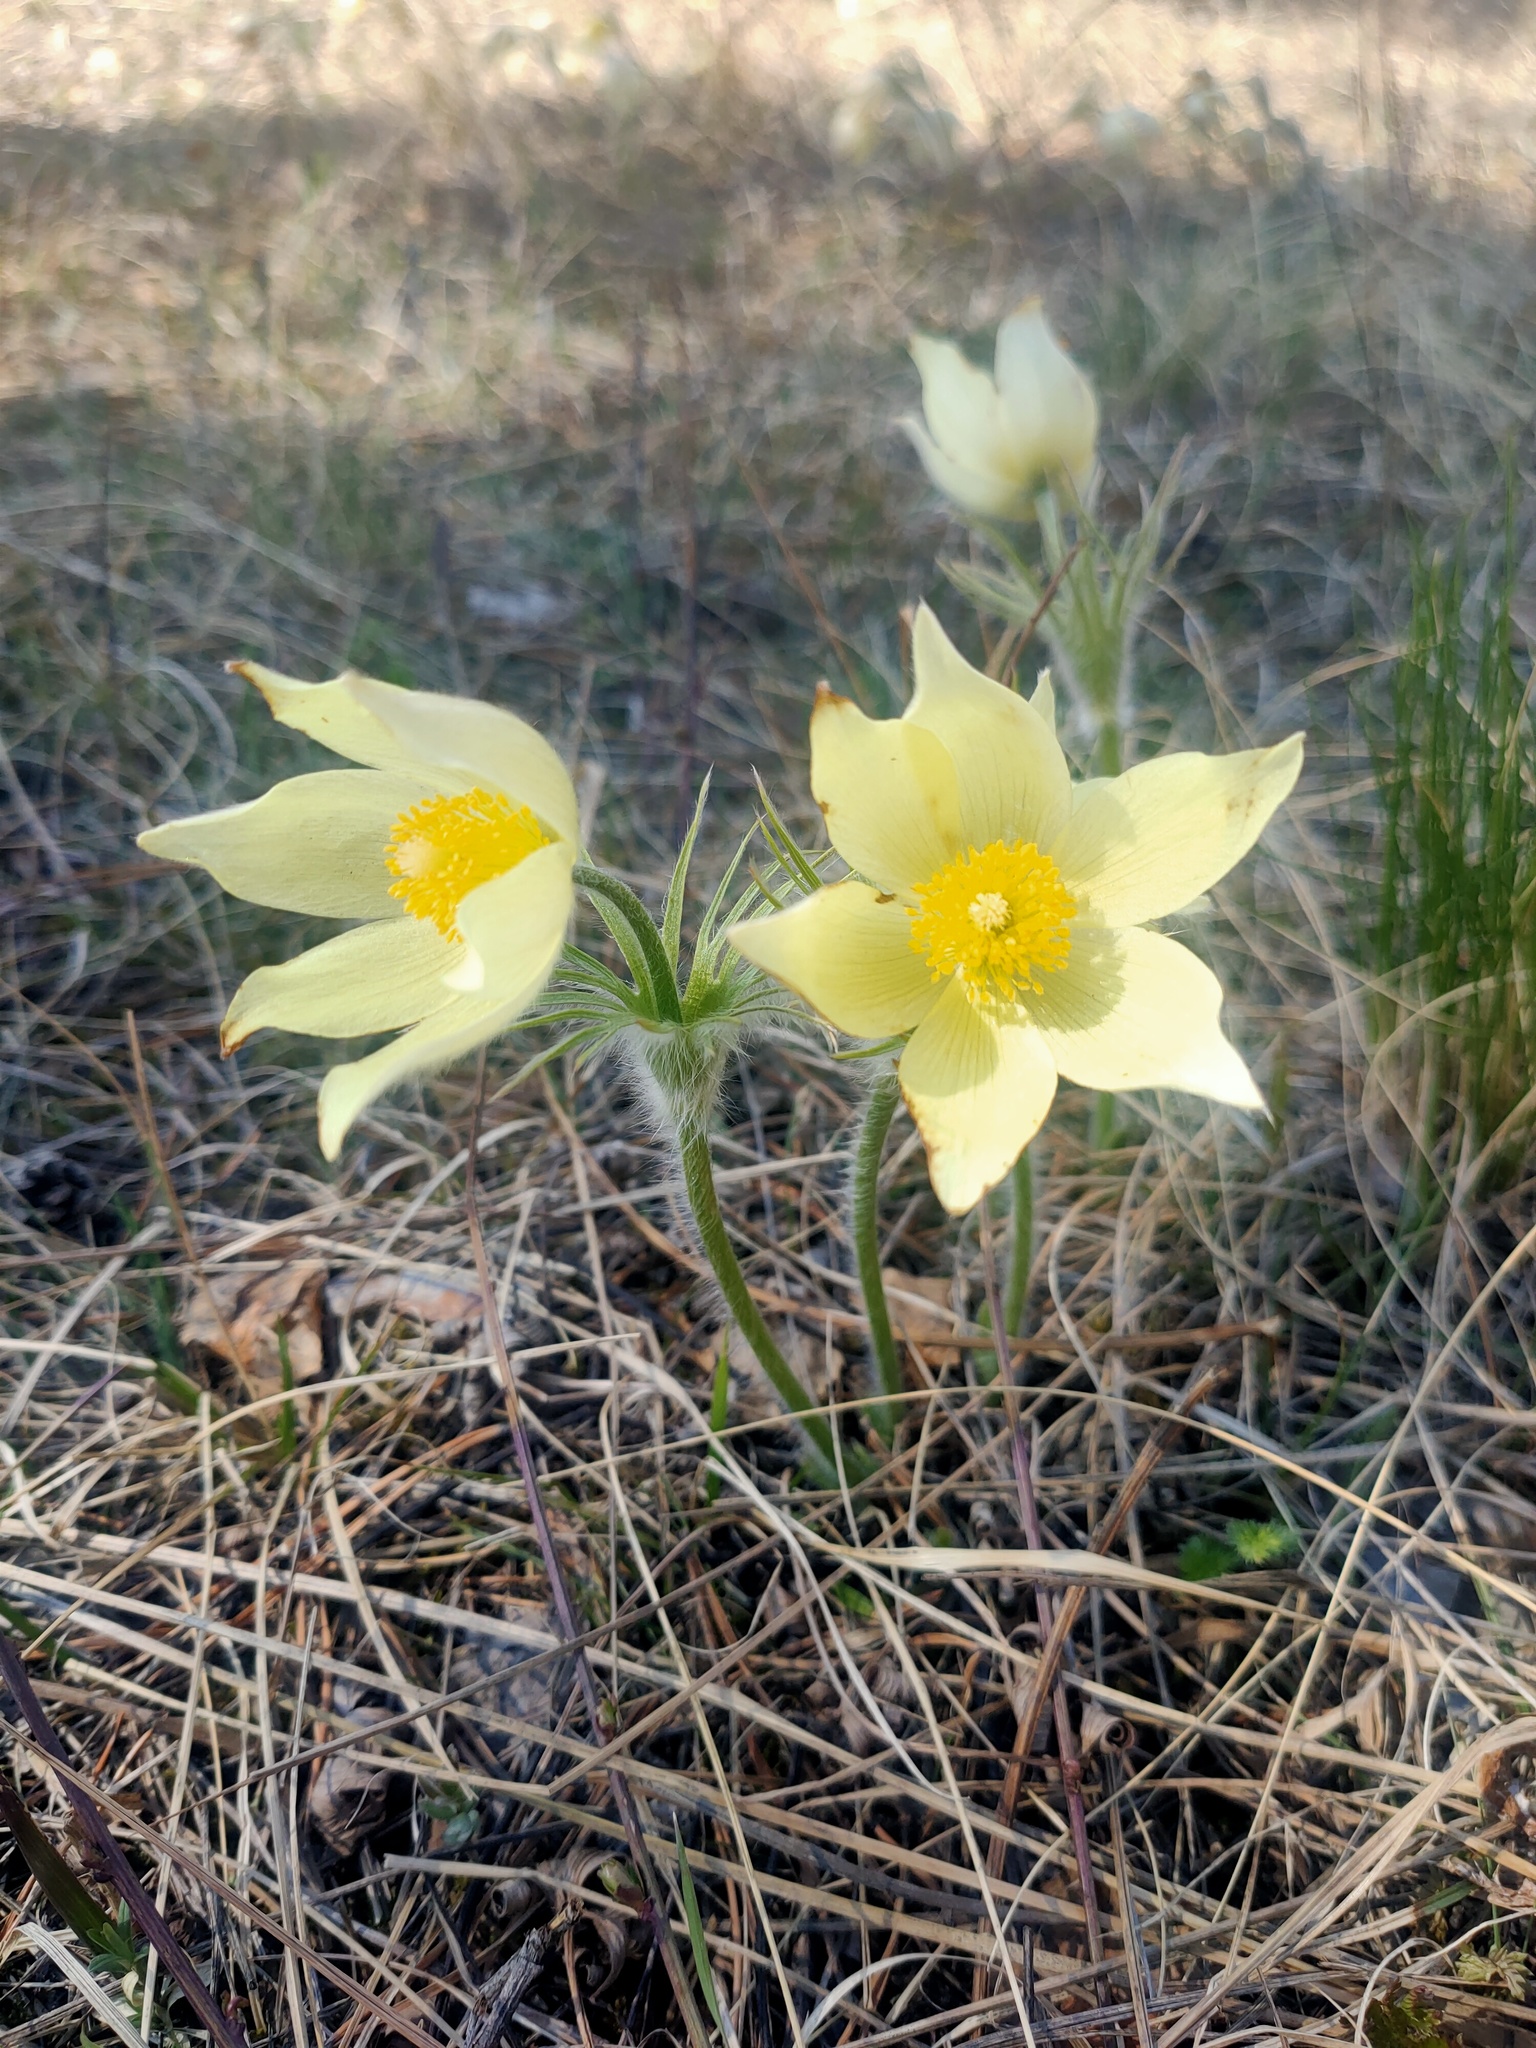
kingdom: Plantae
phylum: Tracheophyta
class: Magnoliopsida
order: Ranunculales
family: Ranunculaceae
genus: Pulsatilla
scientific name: Pulsatilla patens
